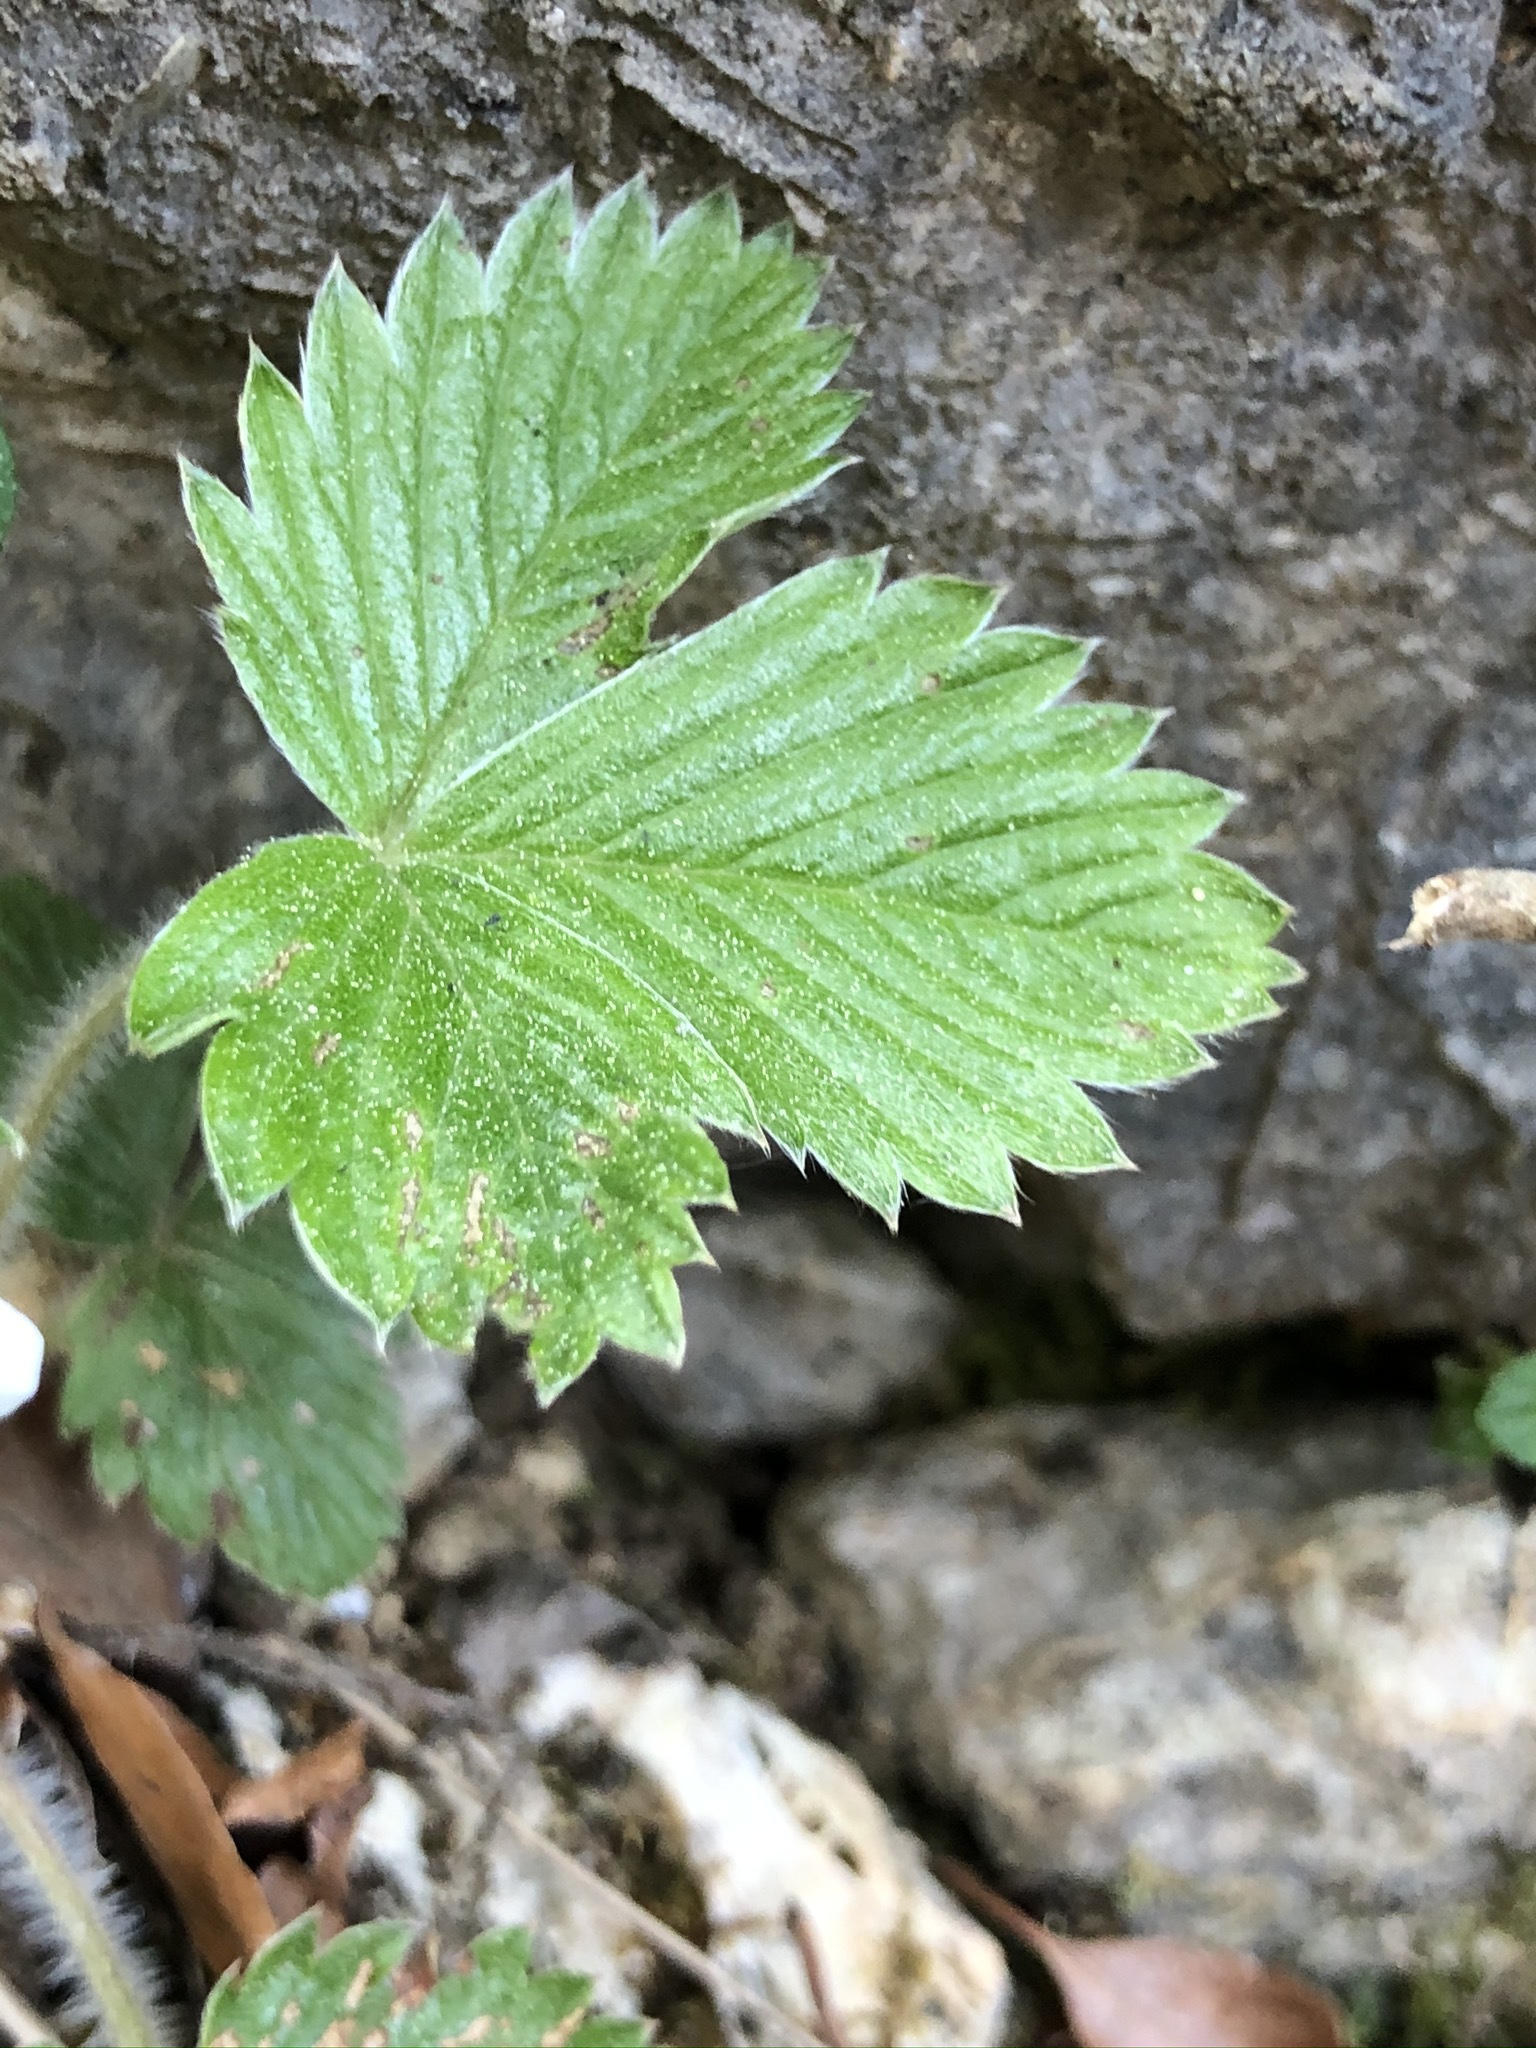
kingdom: Plantae
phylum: Tracheophyta
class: Magnoliopsida
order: Rosales
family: Rosaceae
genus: Fragaria
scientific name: Fragaria vesca
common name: Wild strawberry
